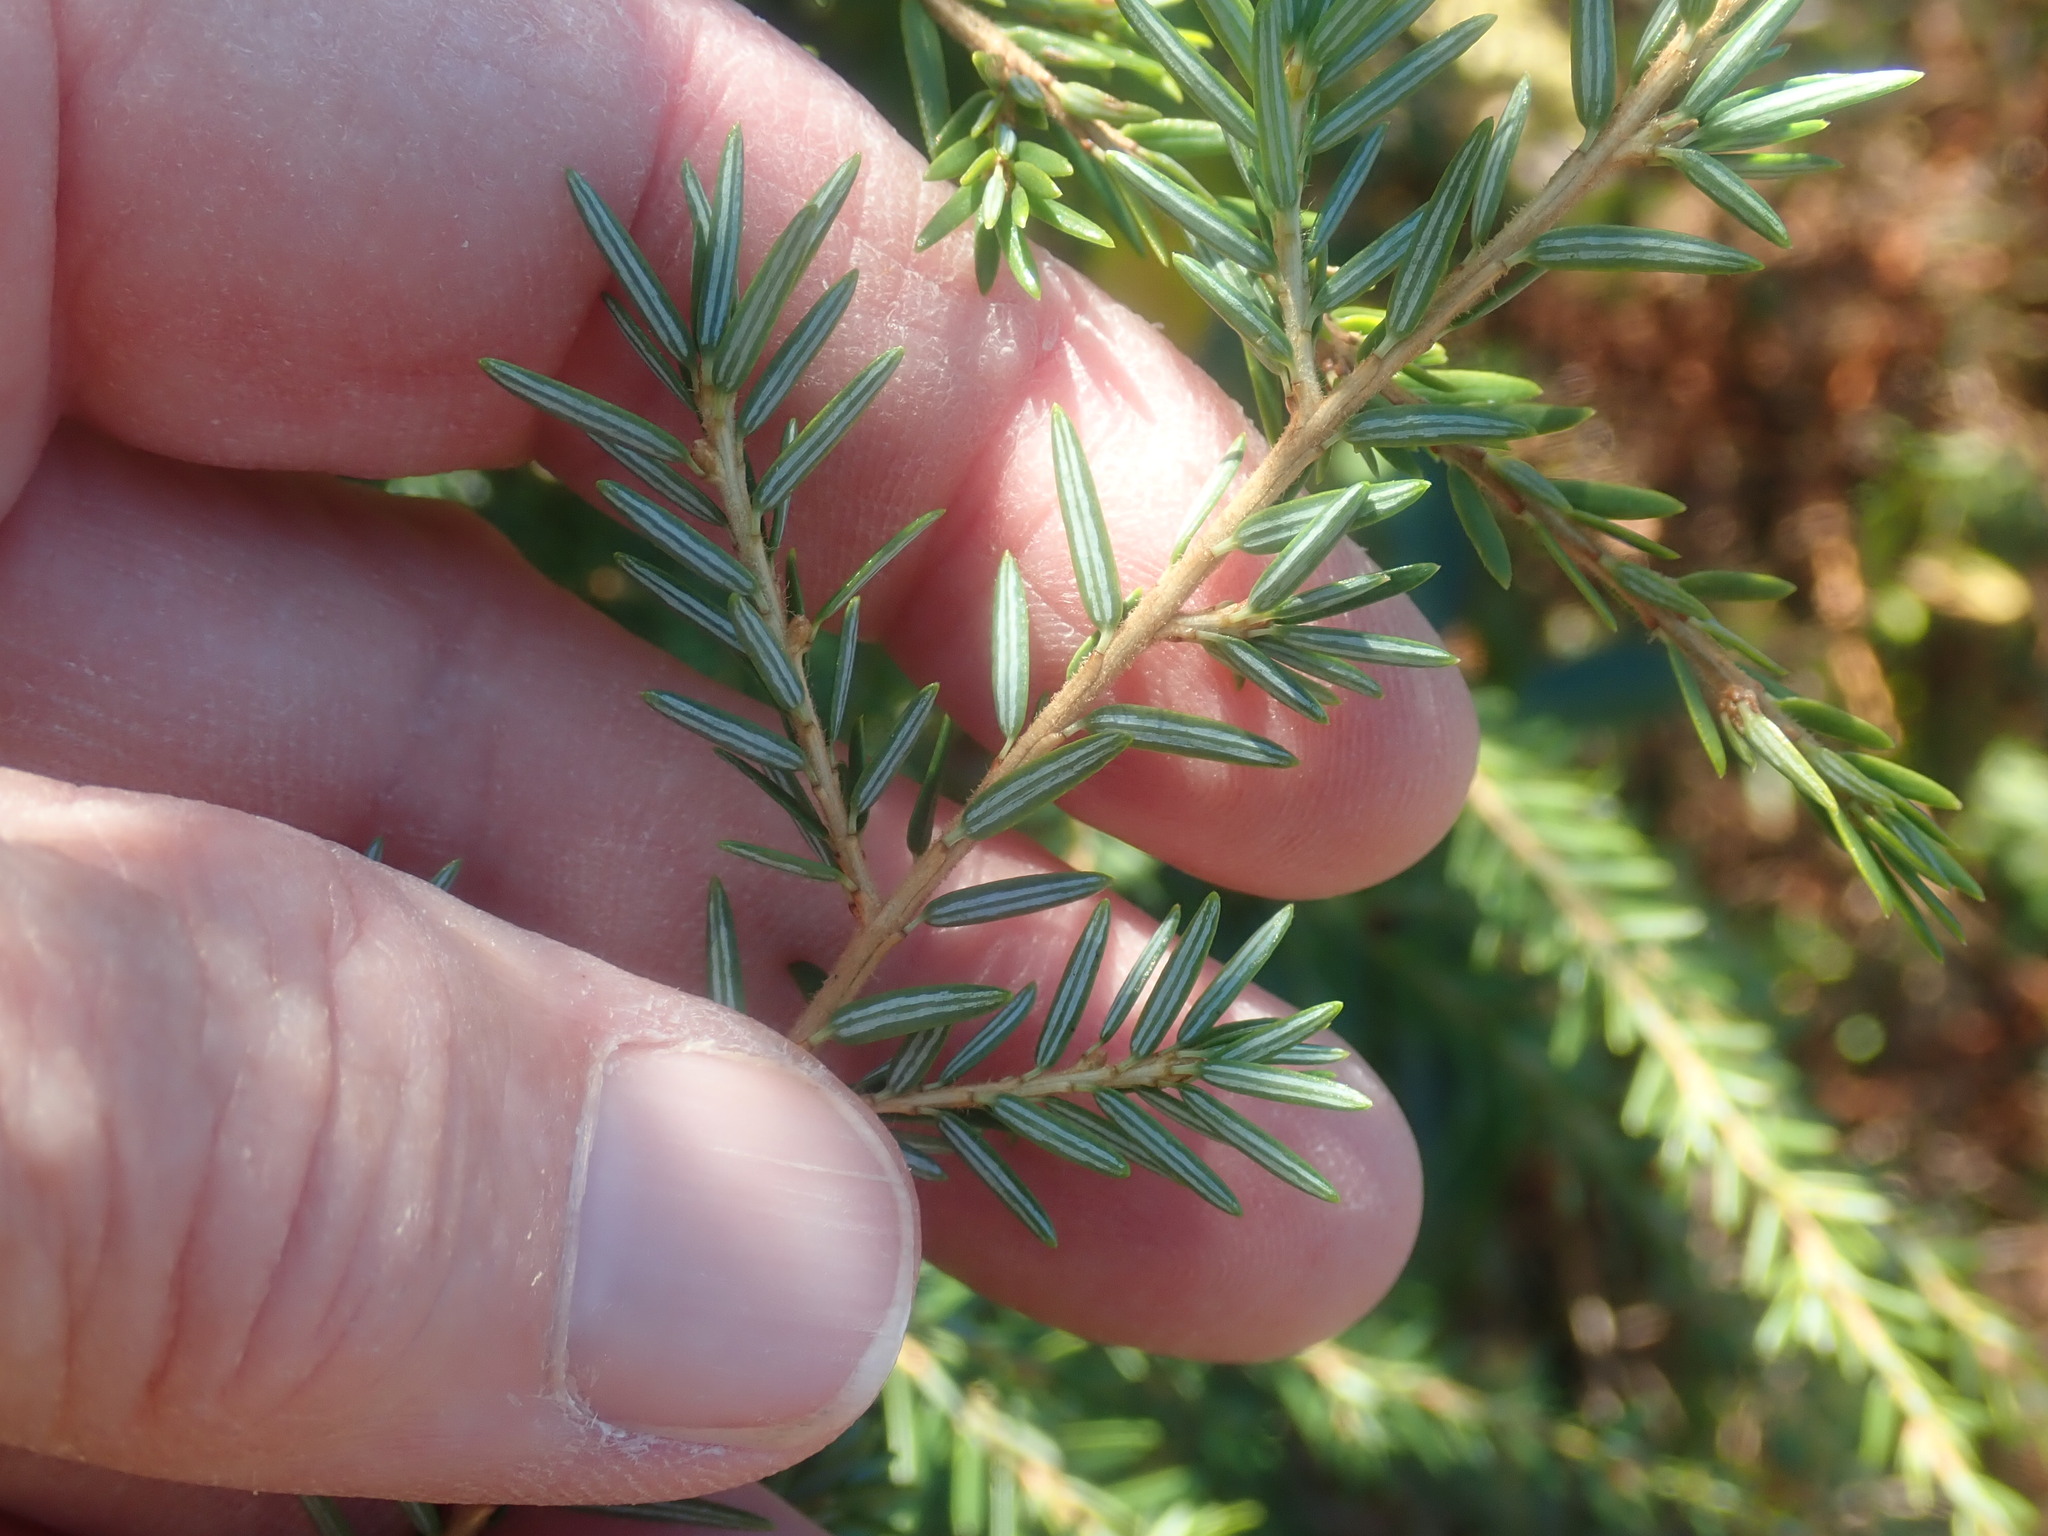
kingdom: Plantae
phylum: Tracheophyta
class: Pinopsida
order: Pinales
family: Pinaceae
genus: Tsuga
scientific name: Tsuga canadensis
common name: Eastern hemlock
